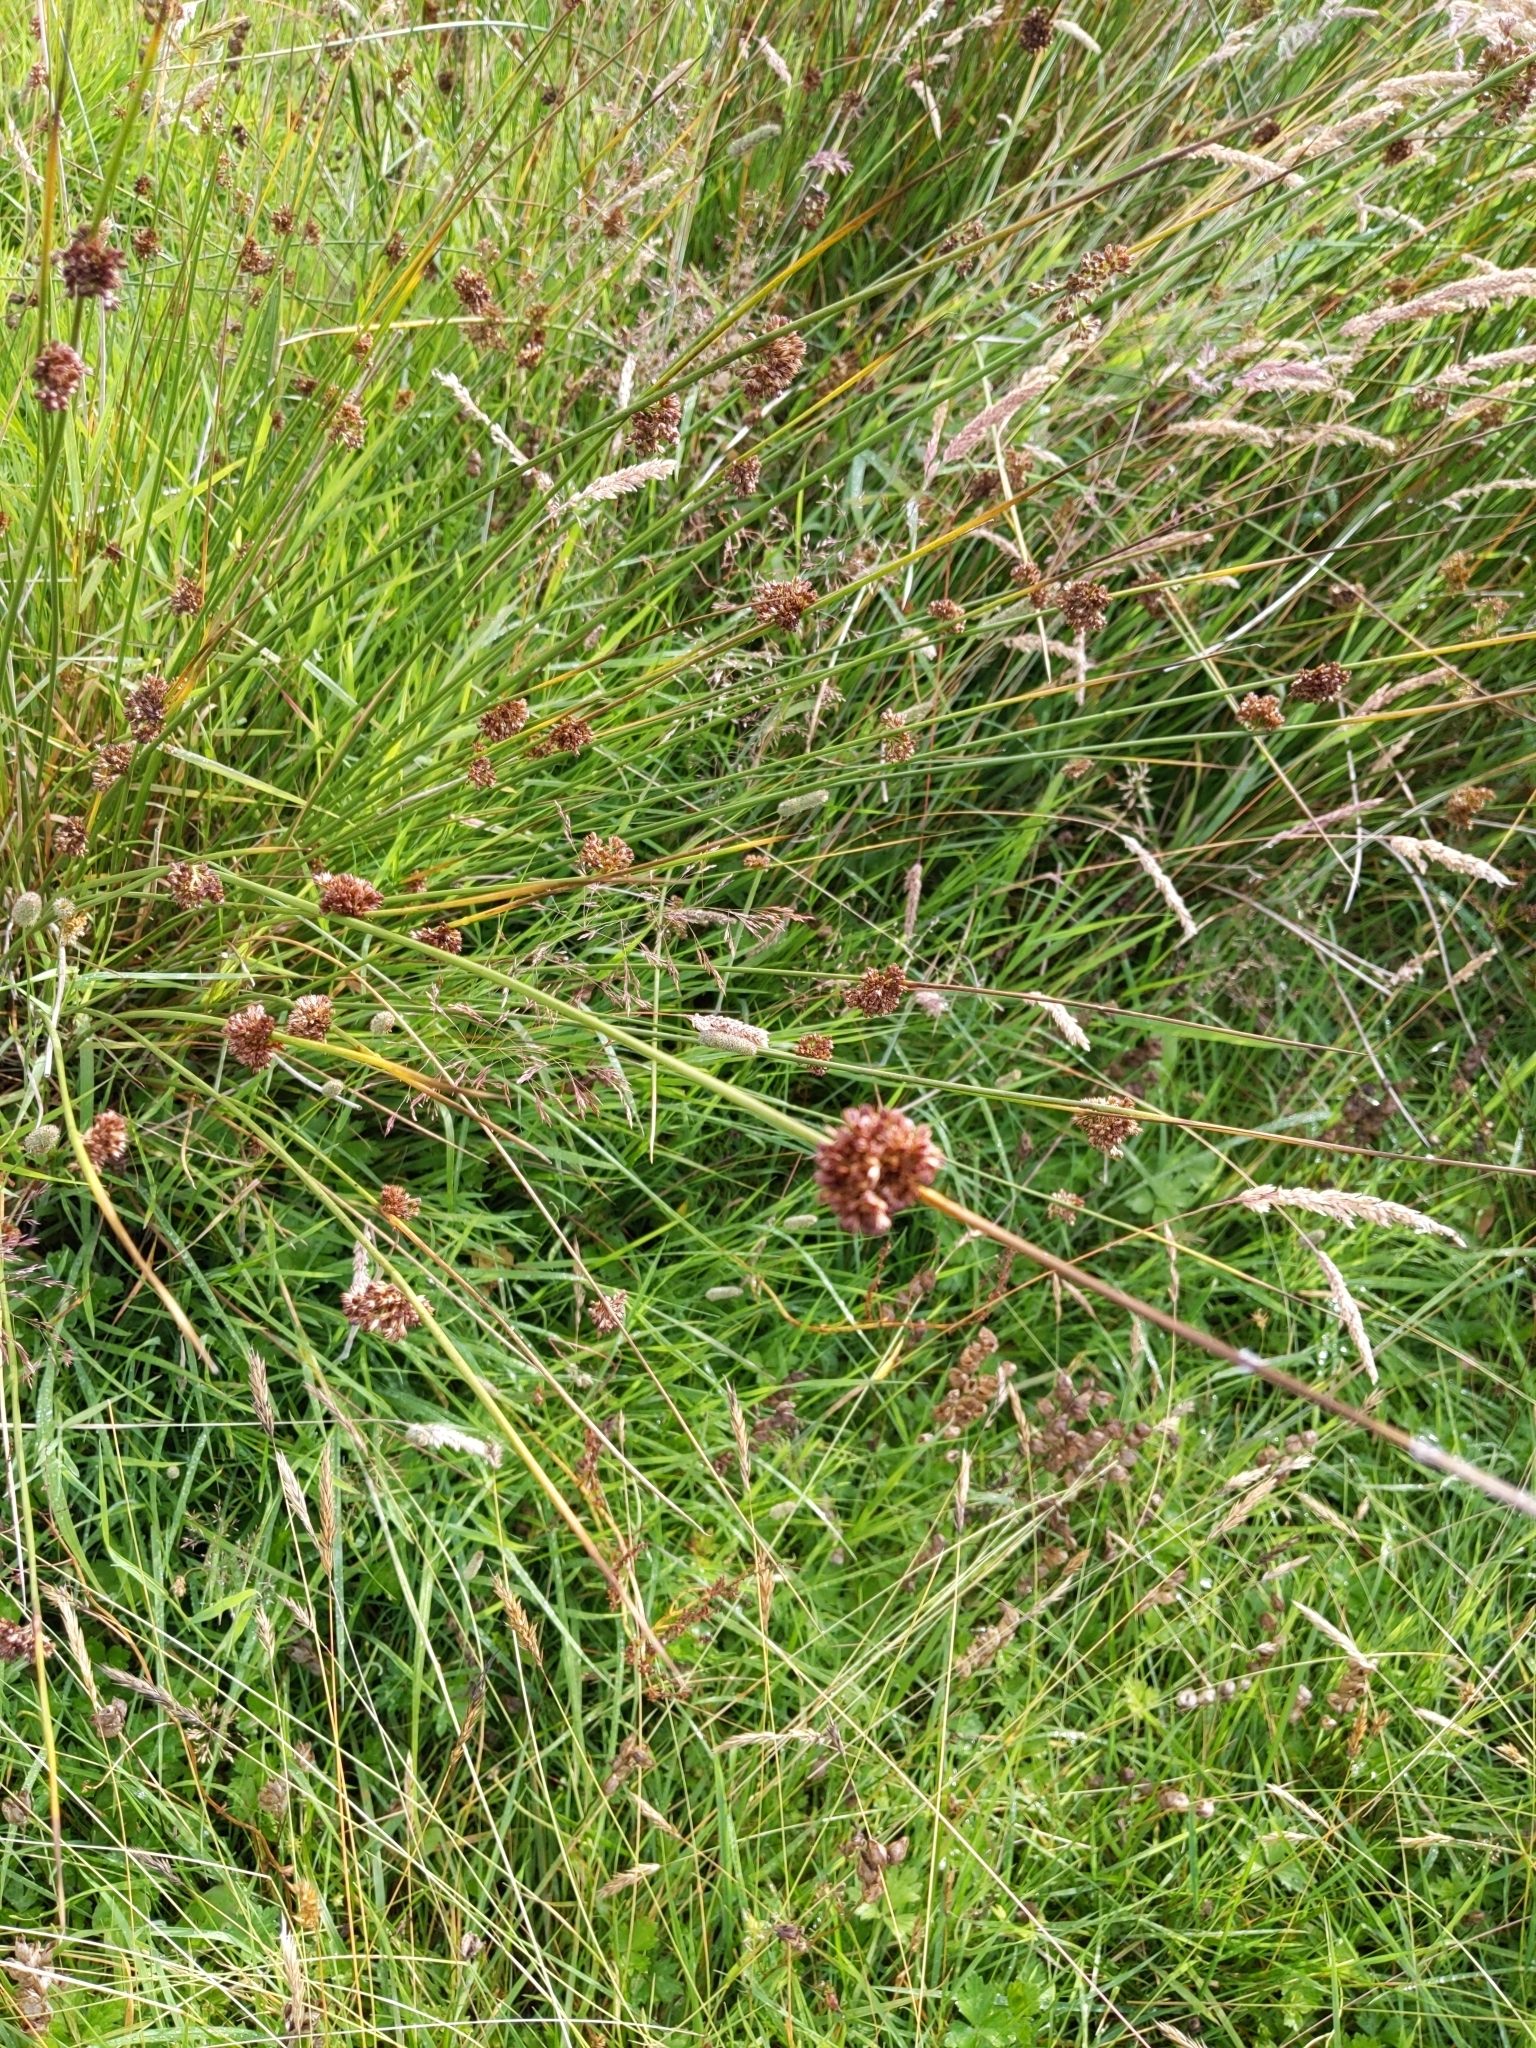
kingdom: Plantae
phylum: Tracheophyta
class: Liliopsida
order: Poales
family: Juncaceae
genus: Juncus
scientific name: Juncus effusus
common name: Soft rush
